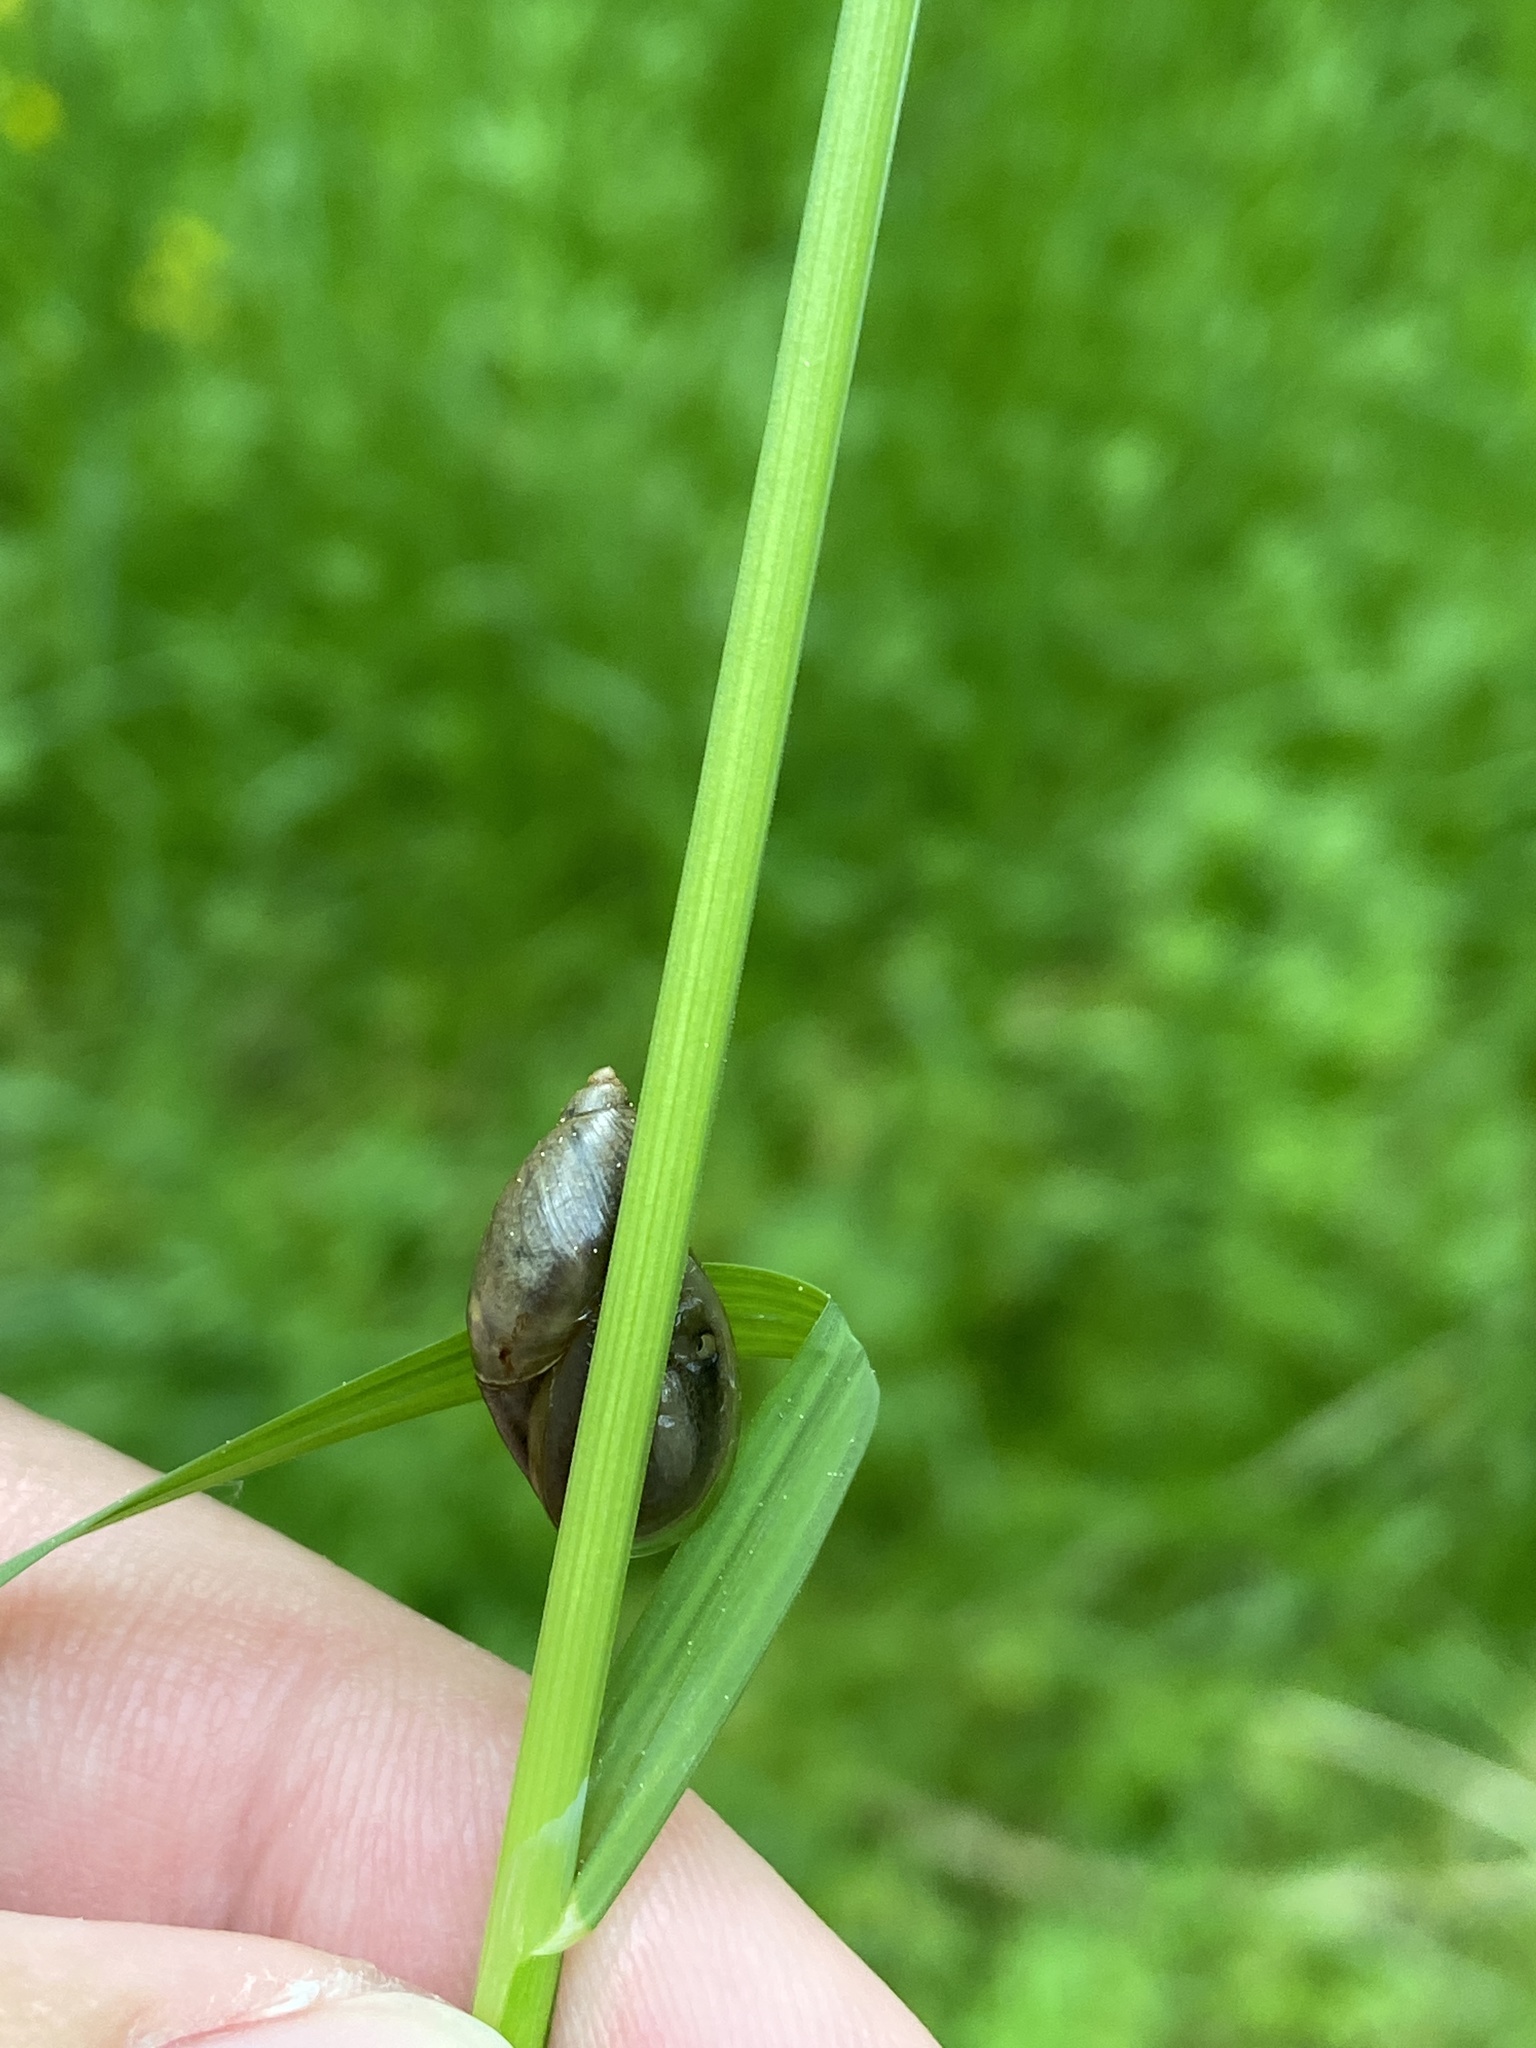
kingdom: Animalia
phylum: Mollusca
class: Gastropoda
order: Stylommatophora
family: Succineidae
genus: Succinea
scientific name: Succinea putris
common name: European ambersnail
